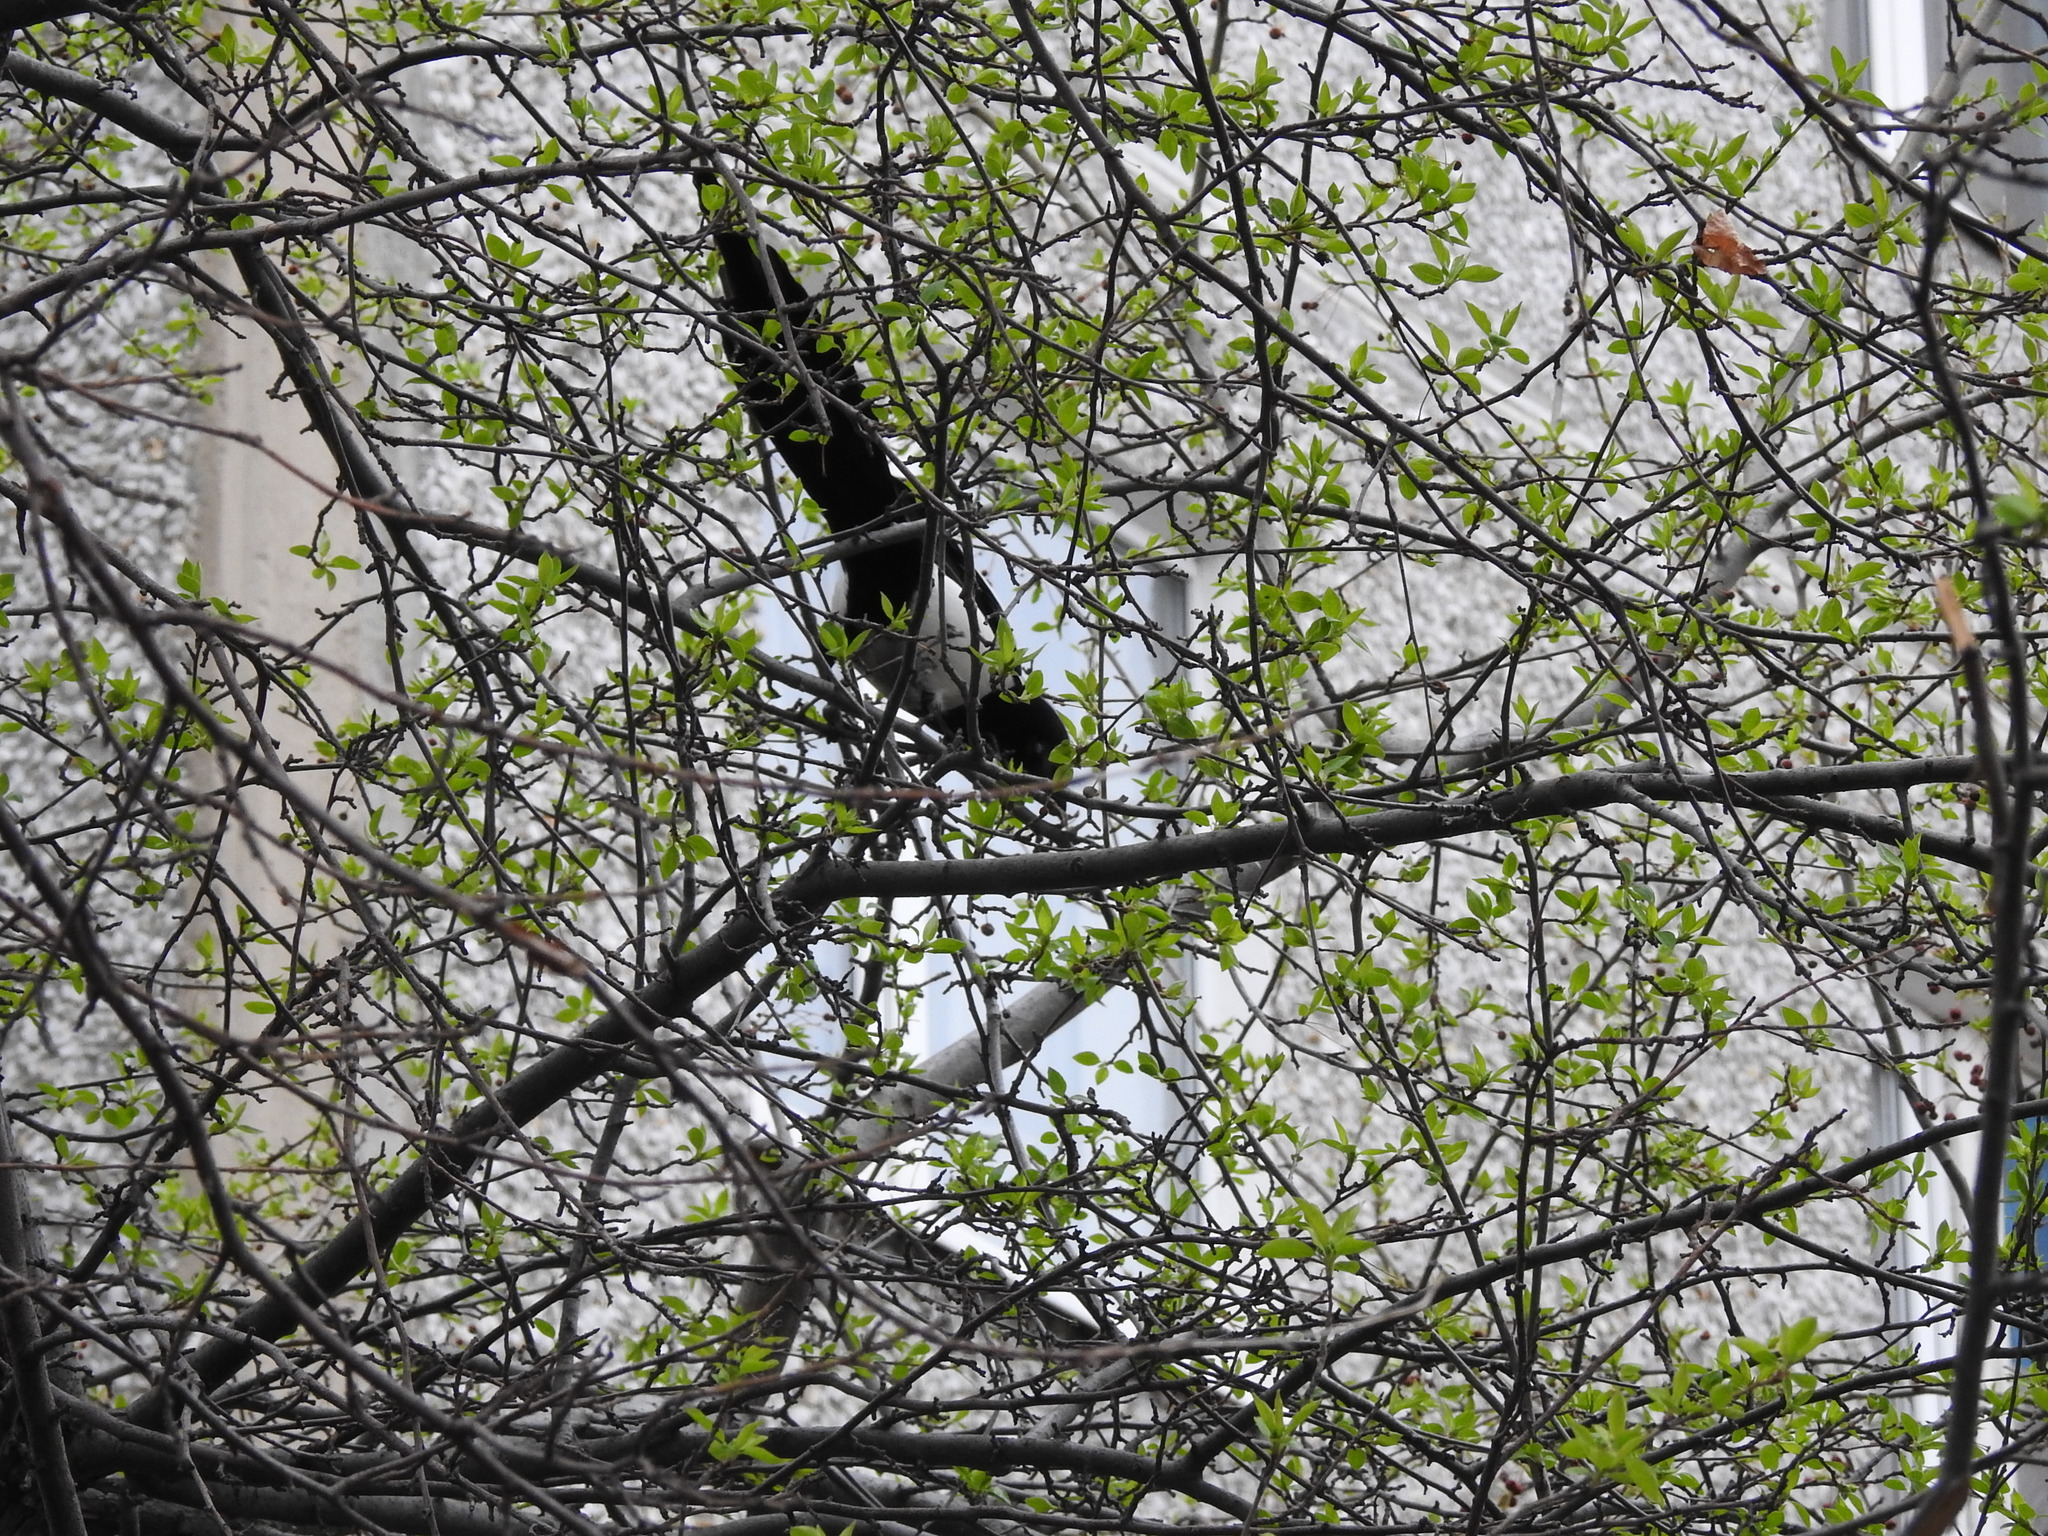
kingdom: Animalia
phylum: Chordata
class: Aves
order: Passeriformes
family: Corvidae
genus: Pica
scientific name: Pica pica
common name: Eurasian magpie
